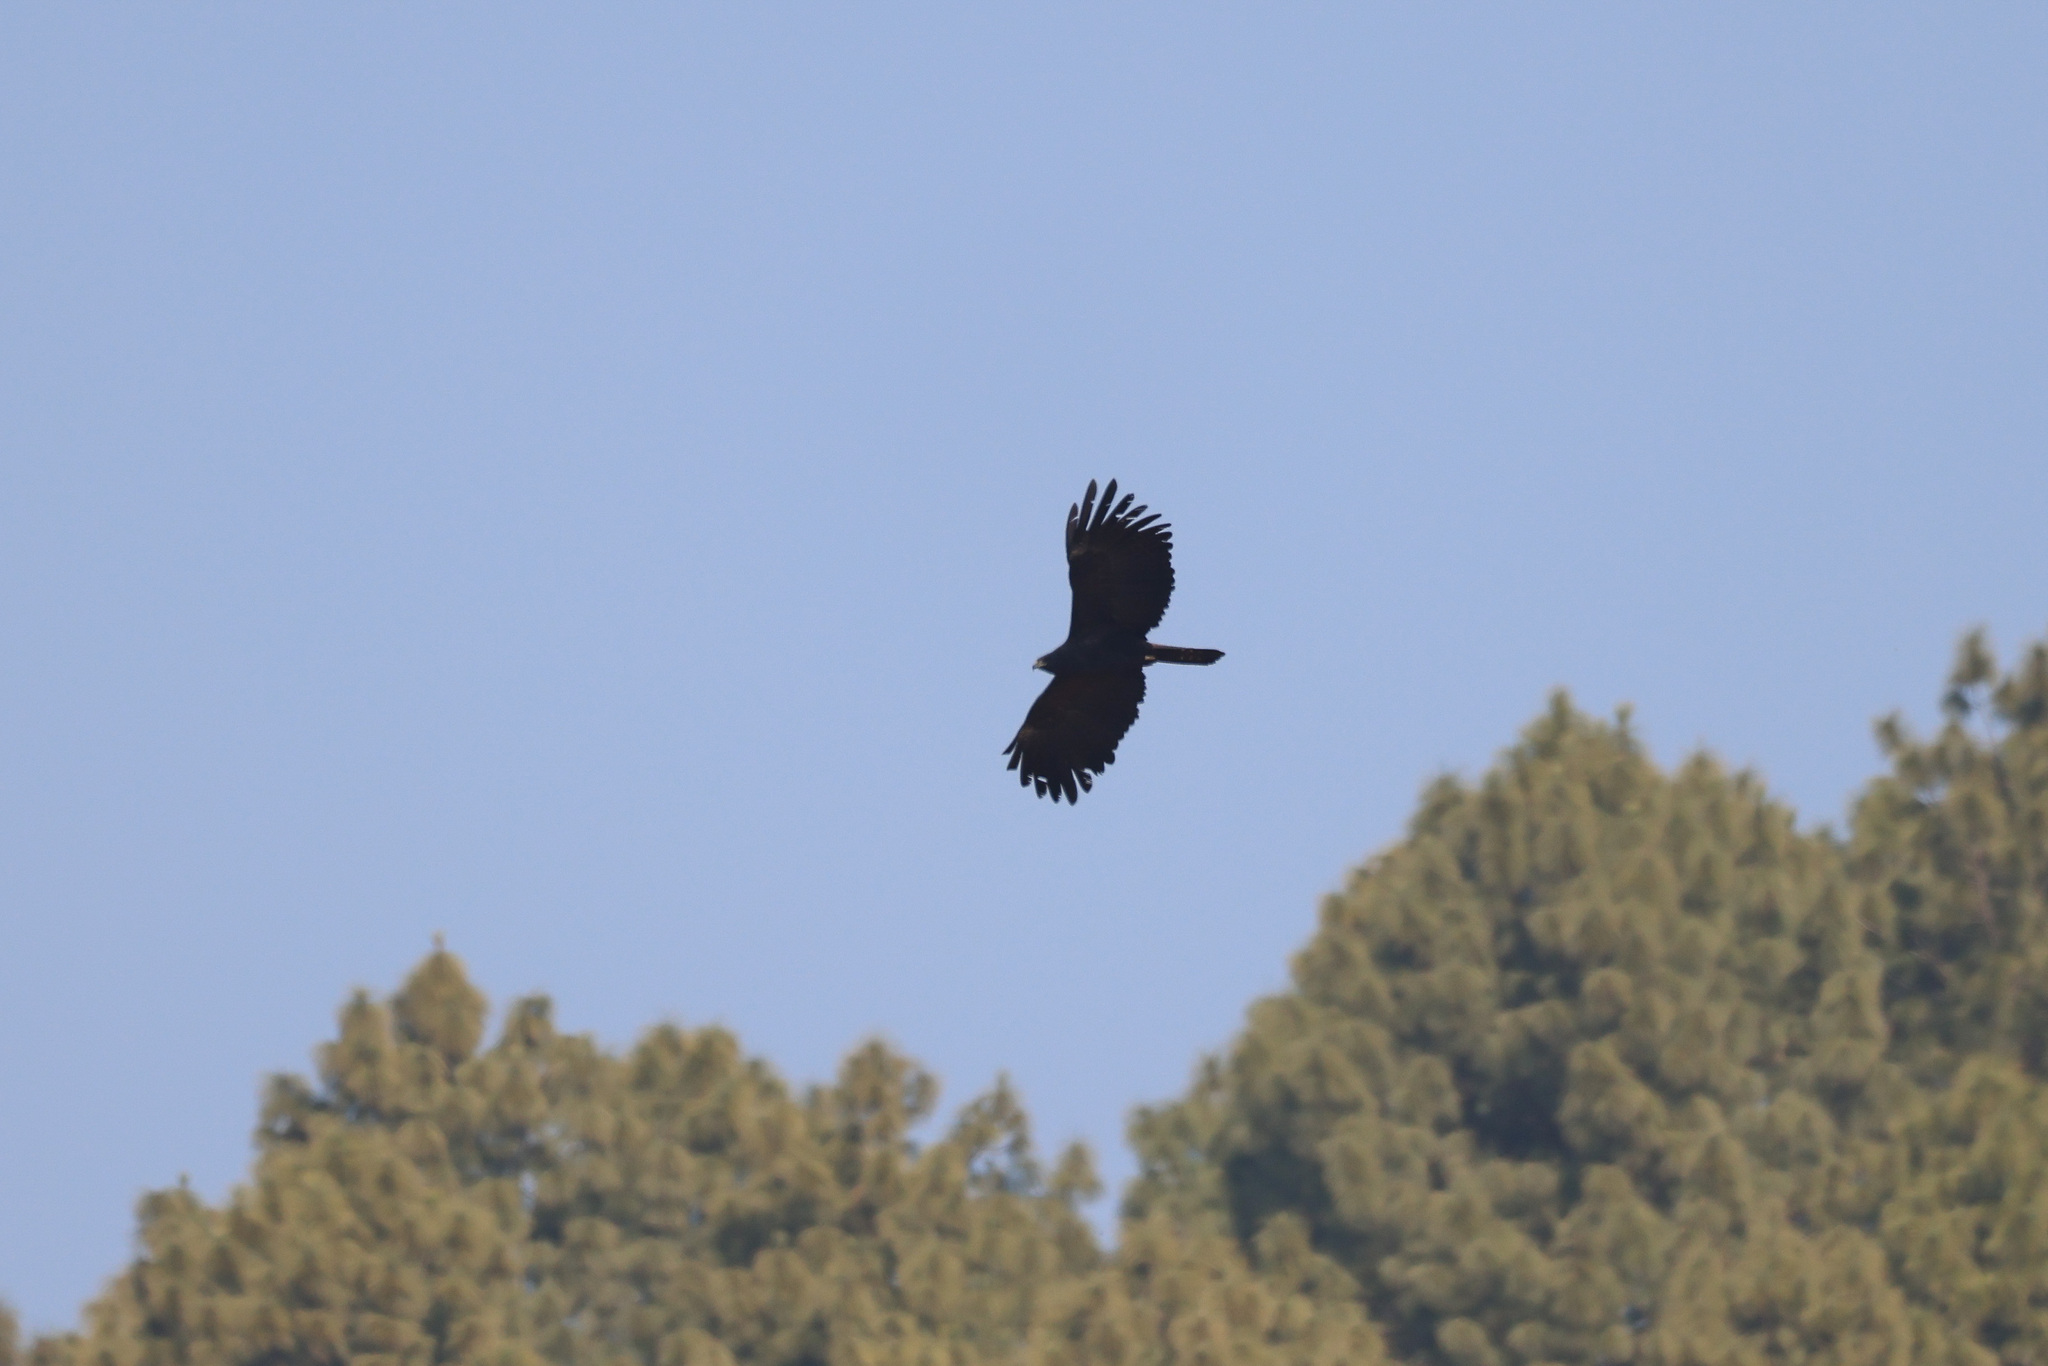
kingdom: Animalia
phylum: Chordata
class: Aves
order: Accipitriformes
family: Accipitridae
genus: Ictinaetus
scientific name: Ictinaetus malayensis
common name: Black eagle
